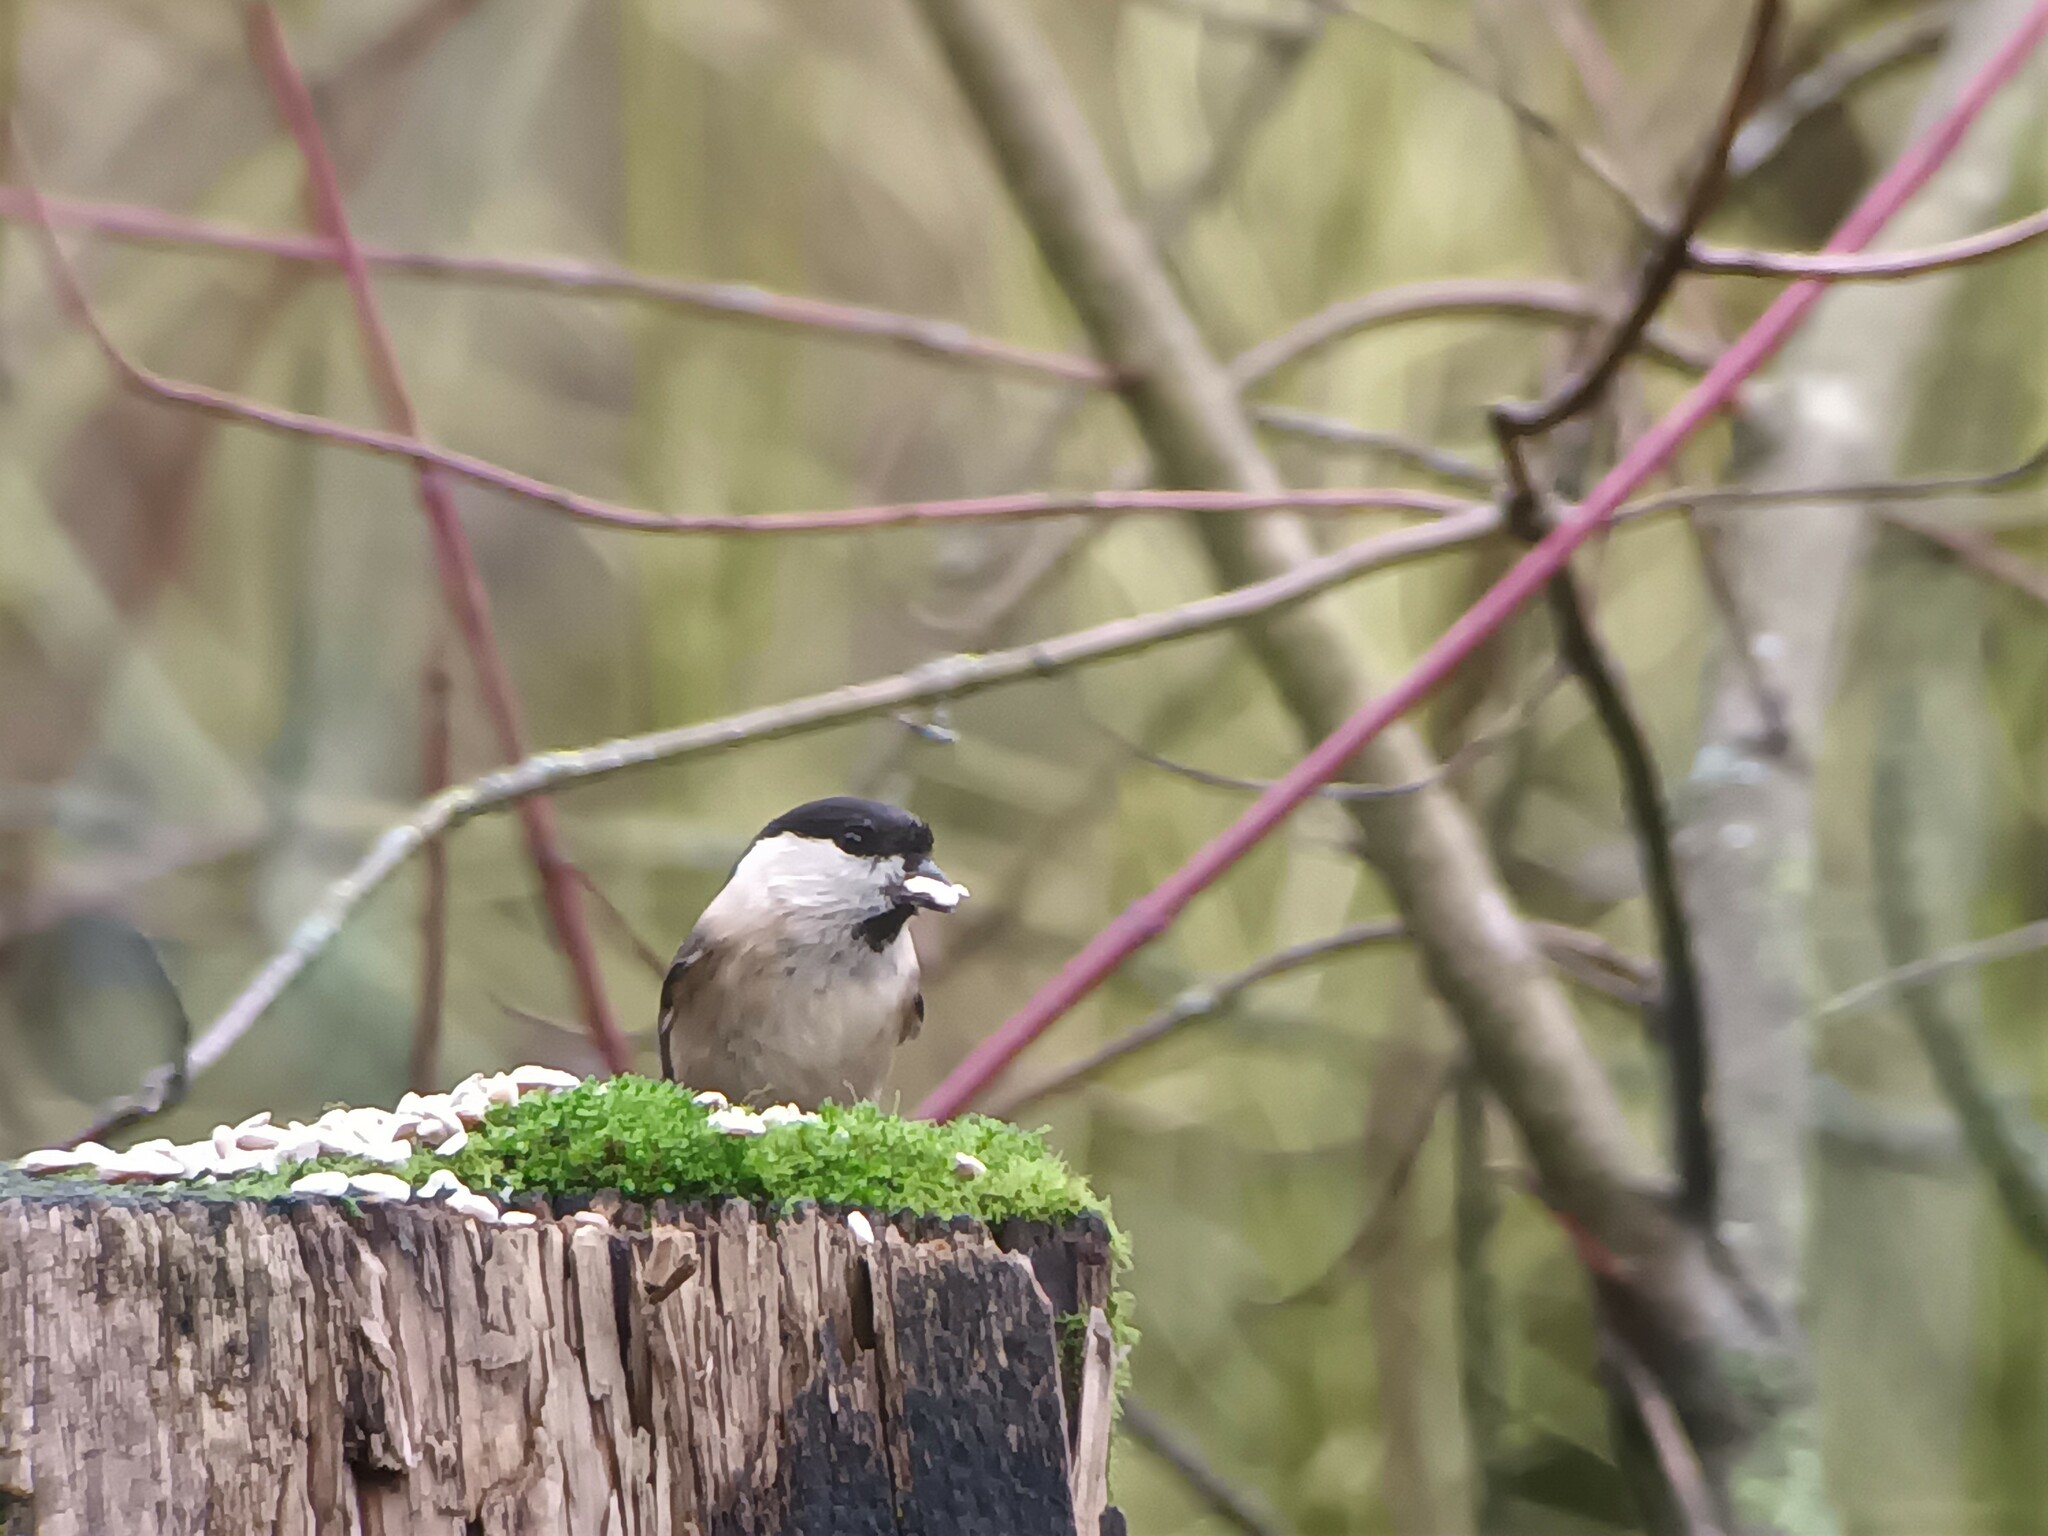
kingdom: Animalia
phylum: Chordata
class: Aves
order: Passeriformes
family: Paridae
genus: Poecile
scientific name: Poecile montanus
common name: Willow tit
